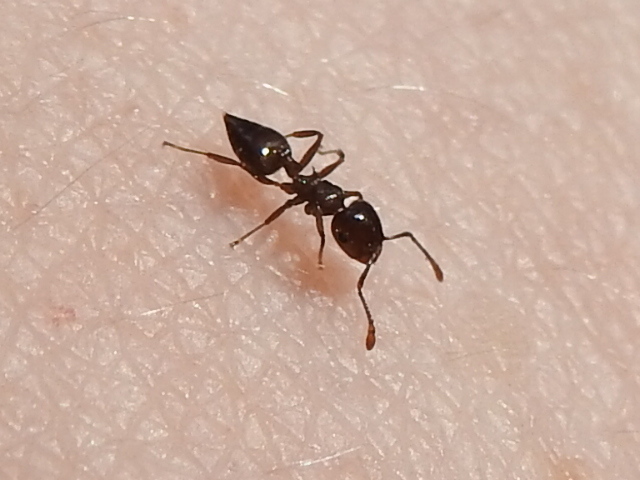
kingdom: Animalia
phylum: Arthropoda
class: Insecta
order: Hymenoptera
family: Formicidae
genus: Crematogaster
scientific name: Crematogaster ashmeadi
